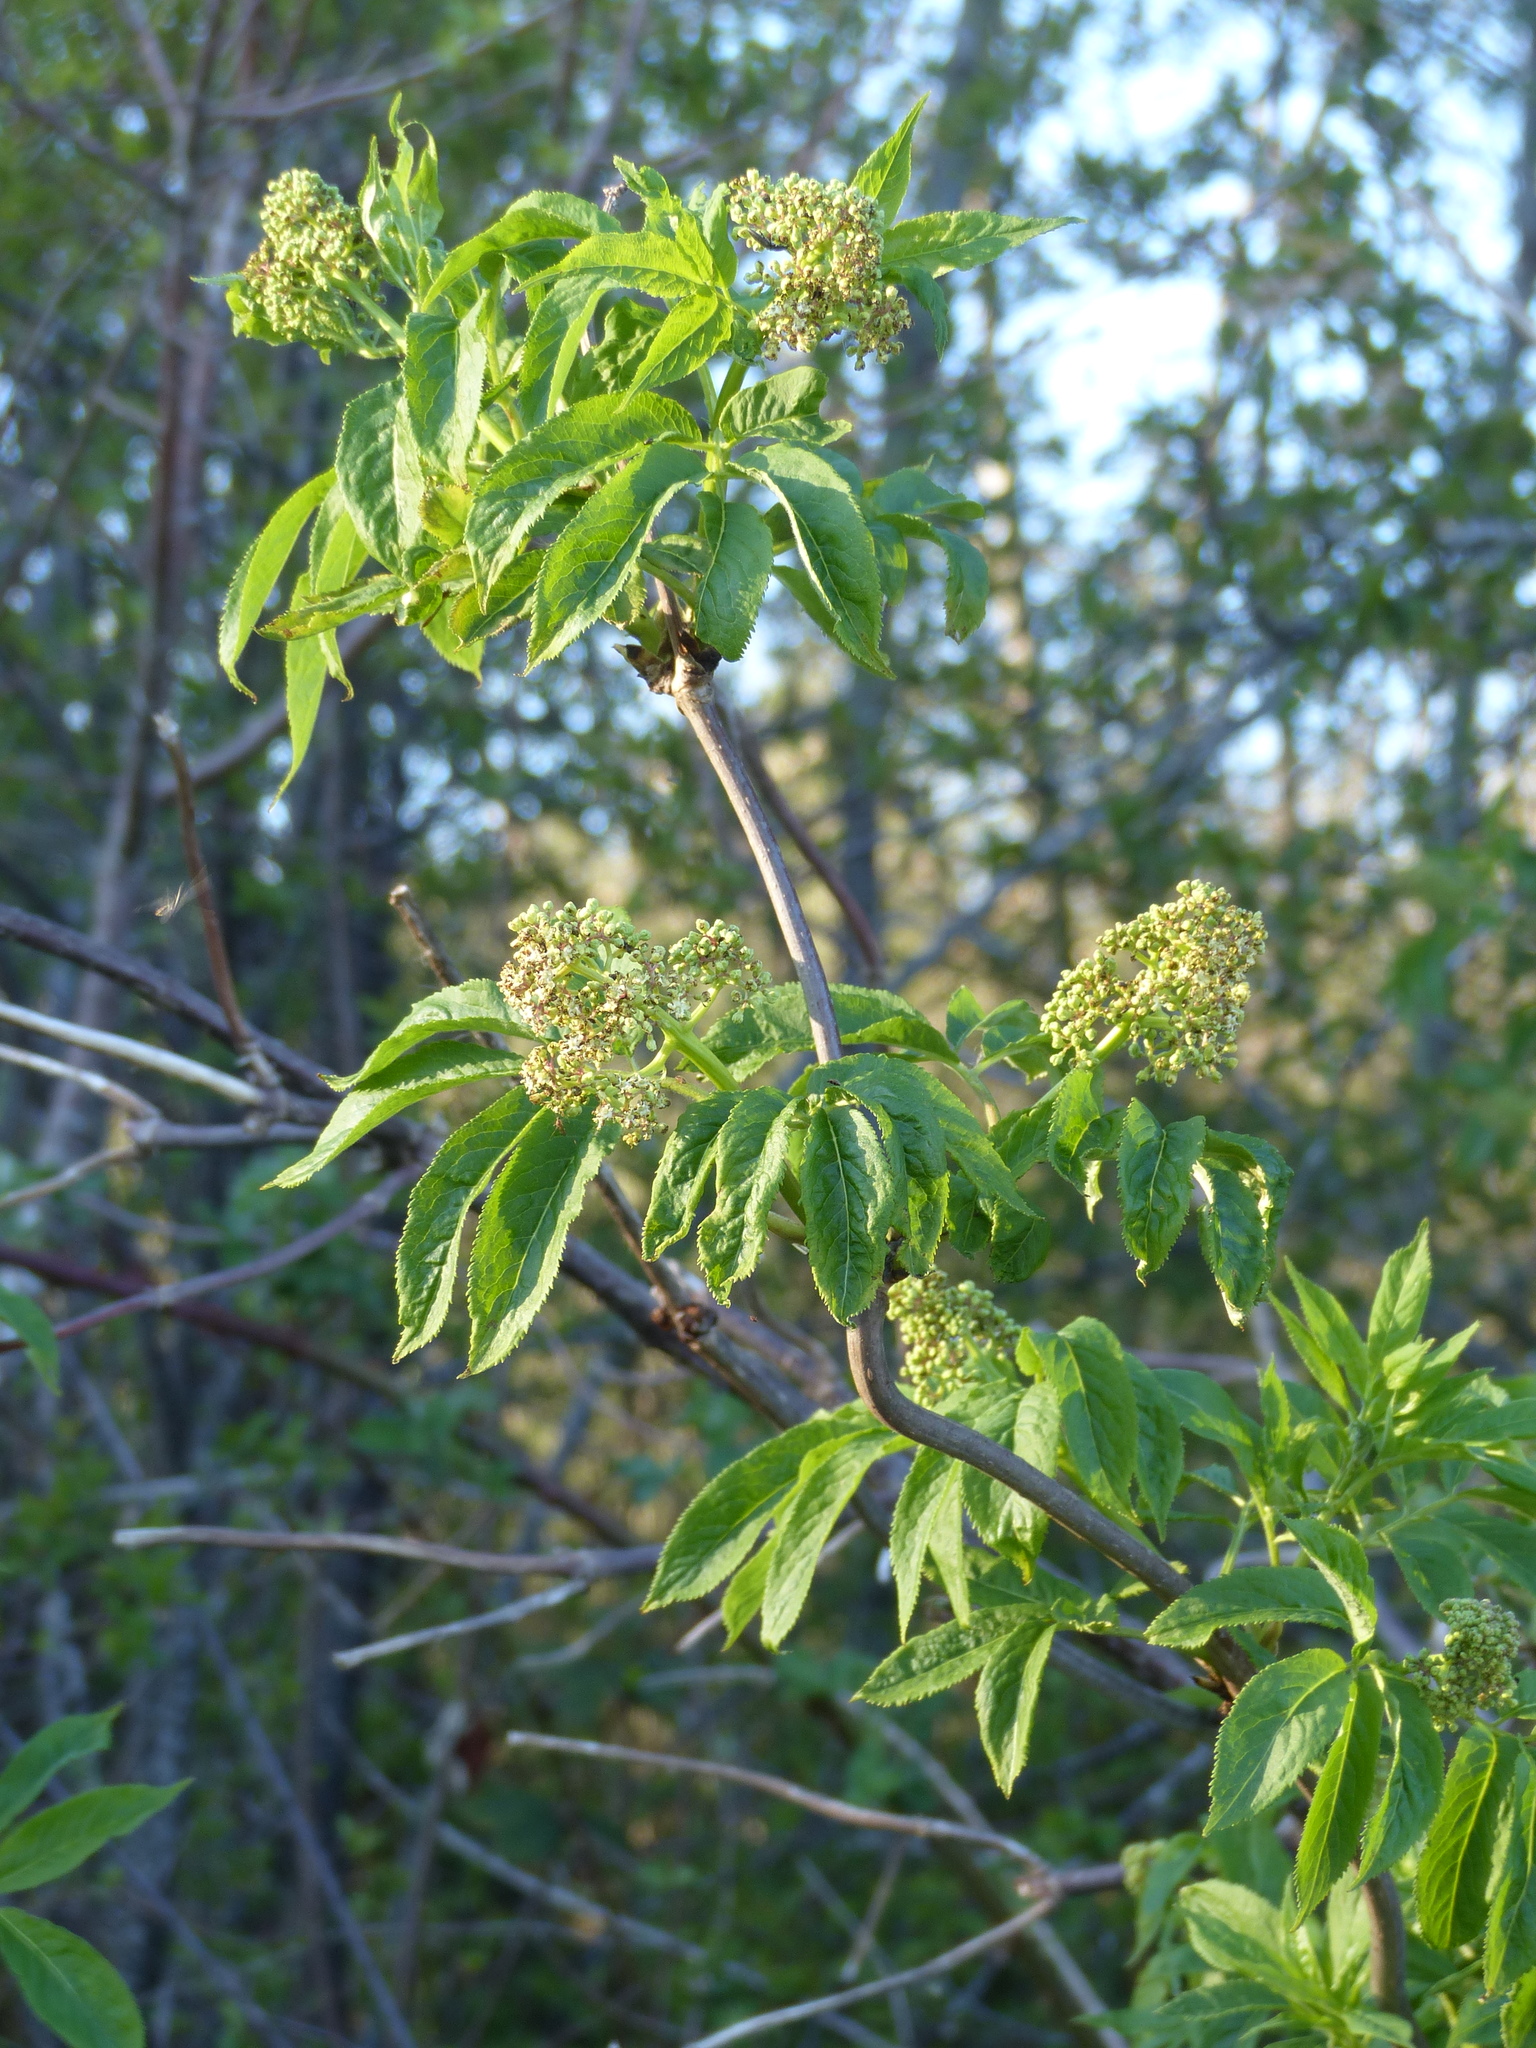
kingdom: Plantae
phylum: Tracheophyta
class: Magnoliopsida
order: Dipsacales
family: Viburnaceae
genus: Sambucus
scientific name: Sambucus racemosa
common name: Red-berried elder
